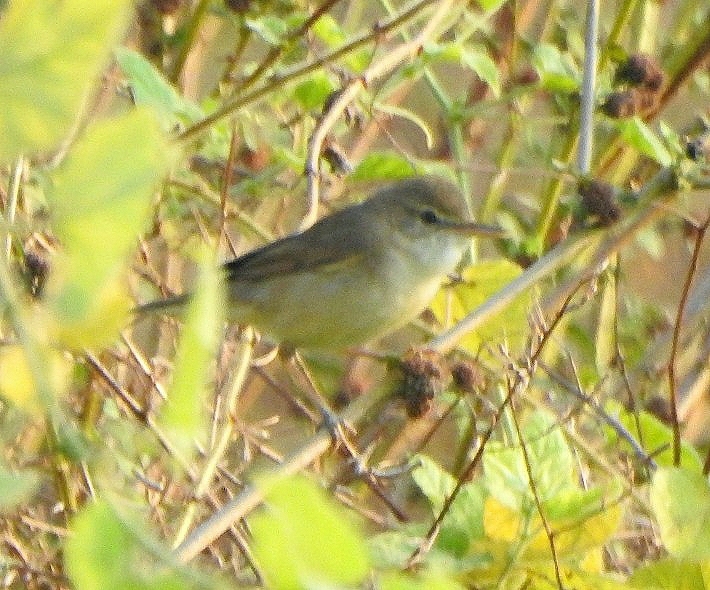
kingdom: Animalia
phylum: Chordata
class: Aves
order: Passeriformes
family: Acrocephalidae
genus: Acrocephalus
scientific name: Acrocephalus dumetorum
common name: Blyth's reed warbler
